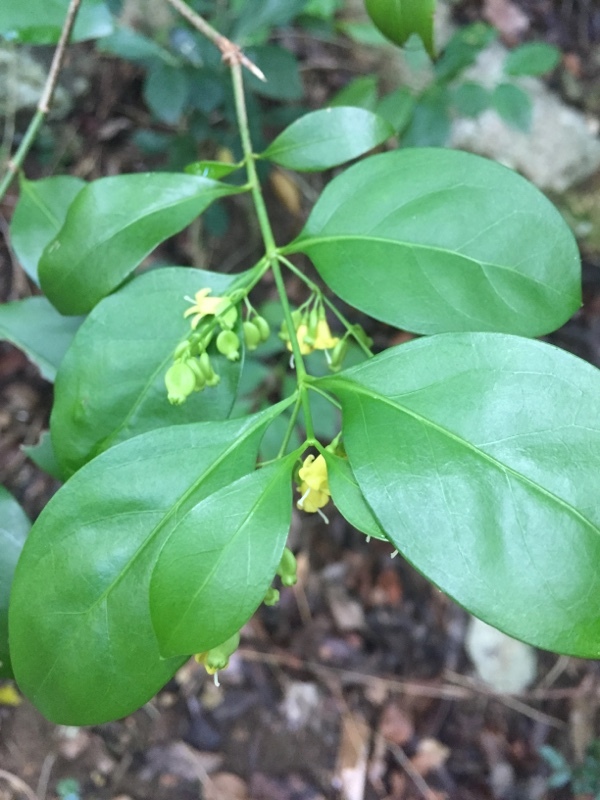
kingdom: Plantae
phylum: Tracheophyta
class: Magnoliopsida
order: Gentianales
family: Rubiaceae
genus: Chiococca
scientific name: Chiococca alba
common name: Snowberry
